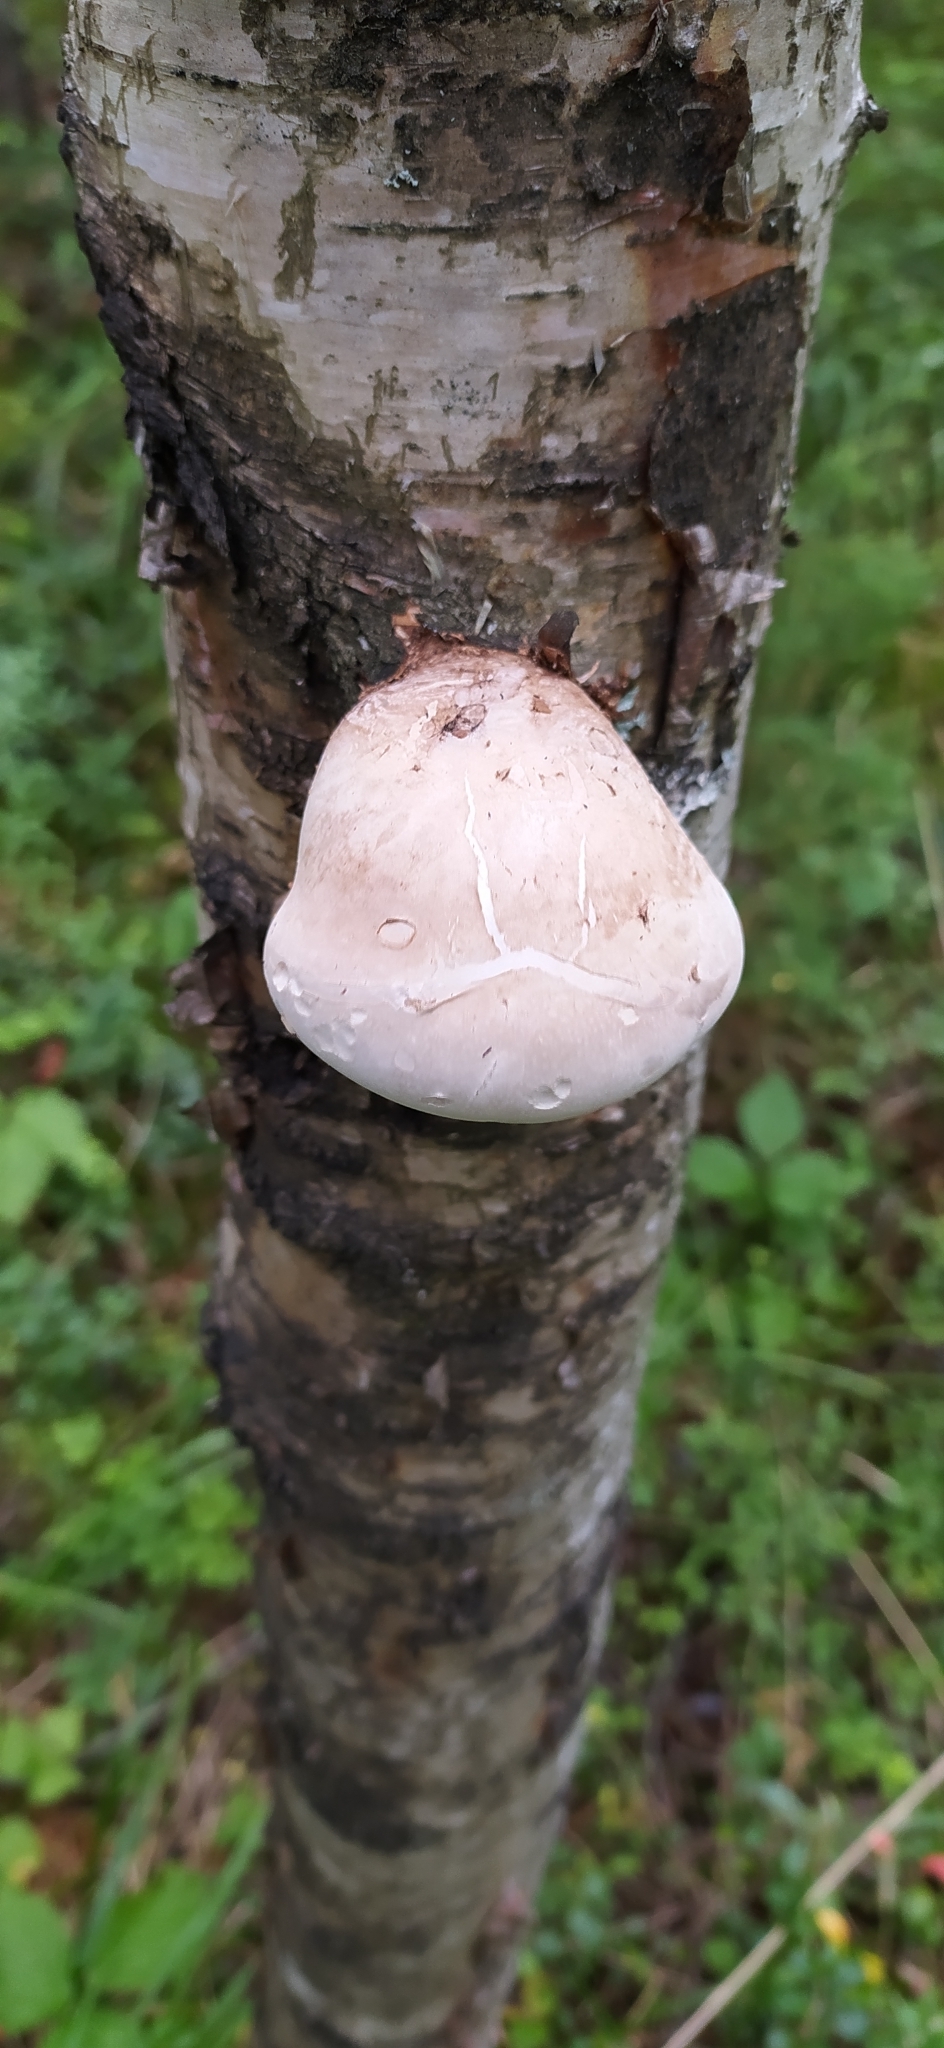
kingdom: Fungi
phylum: Basidiomycota
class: Agaricomycetes
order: Polyporales
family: Fomitopsidaceae
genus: Fomitopsis
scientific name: Fomitopsis betulina
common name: Birch polypore
